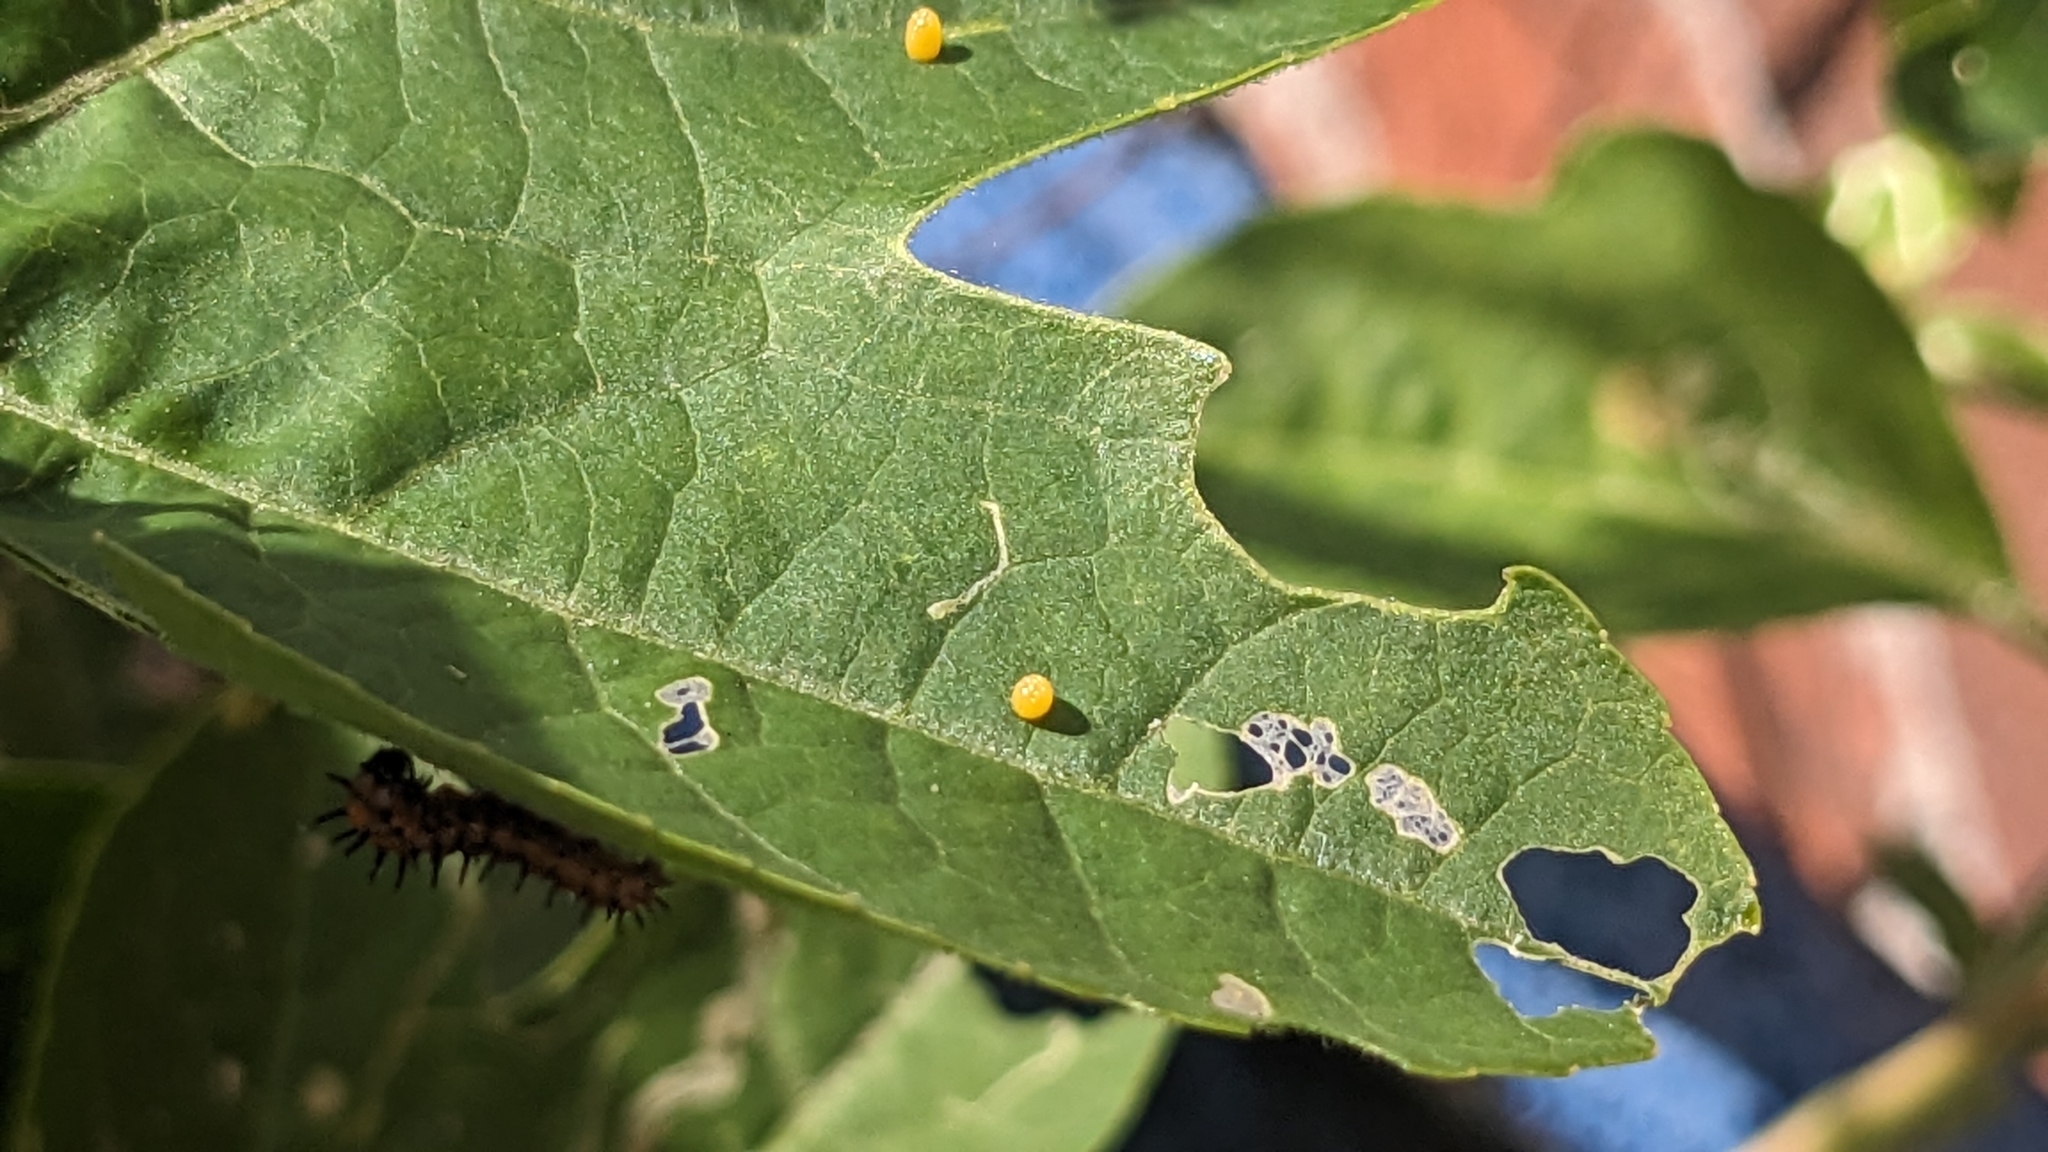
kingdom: Animalia
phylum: Arthropoda
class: Insecta
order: Lepidoptera
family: Nymphalidae
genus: Dione
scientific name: Dione vanillae
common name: Gulf fritillary
